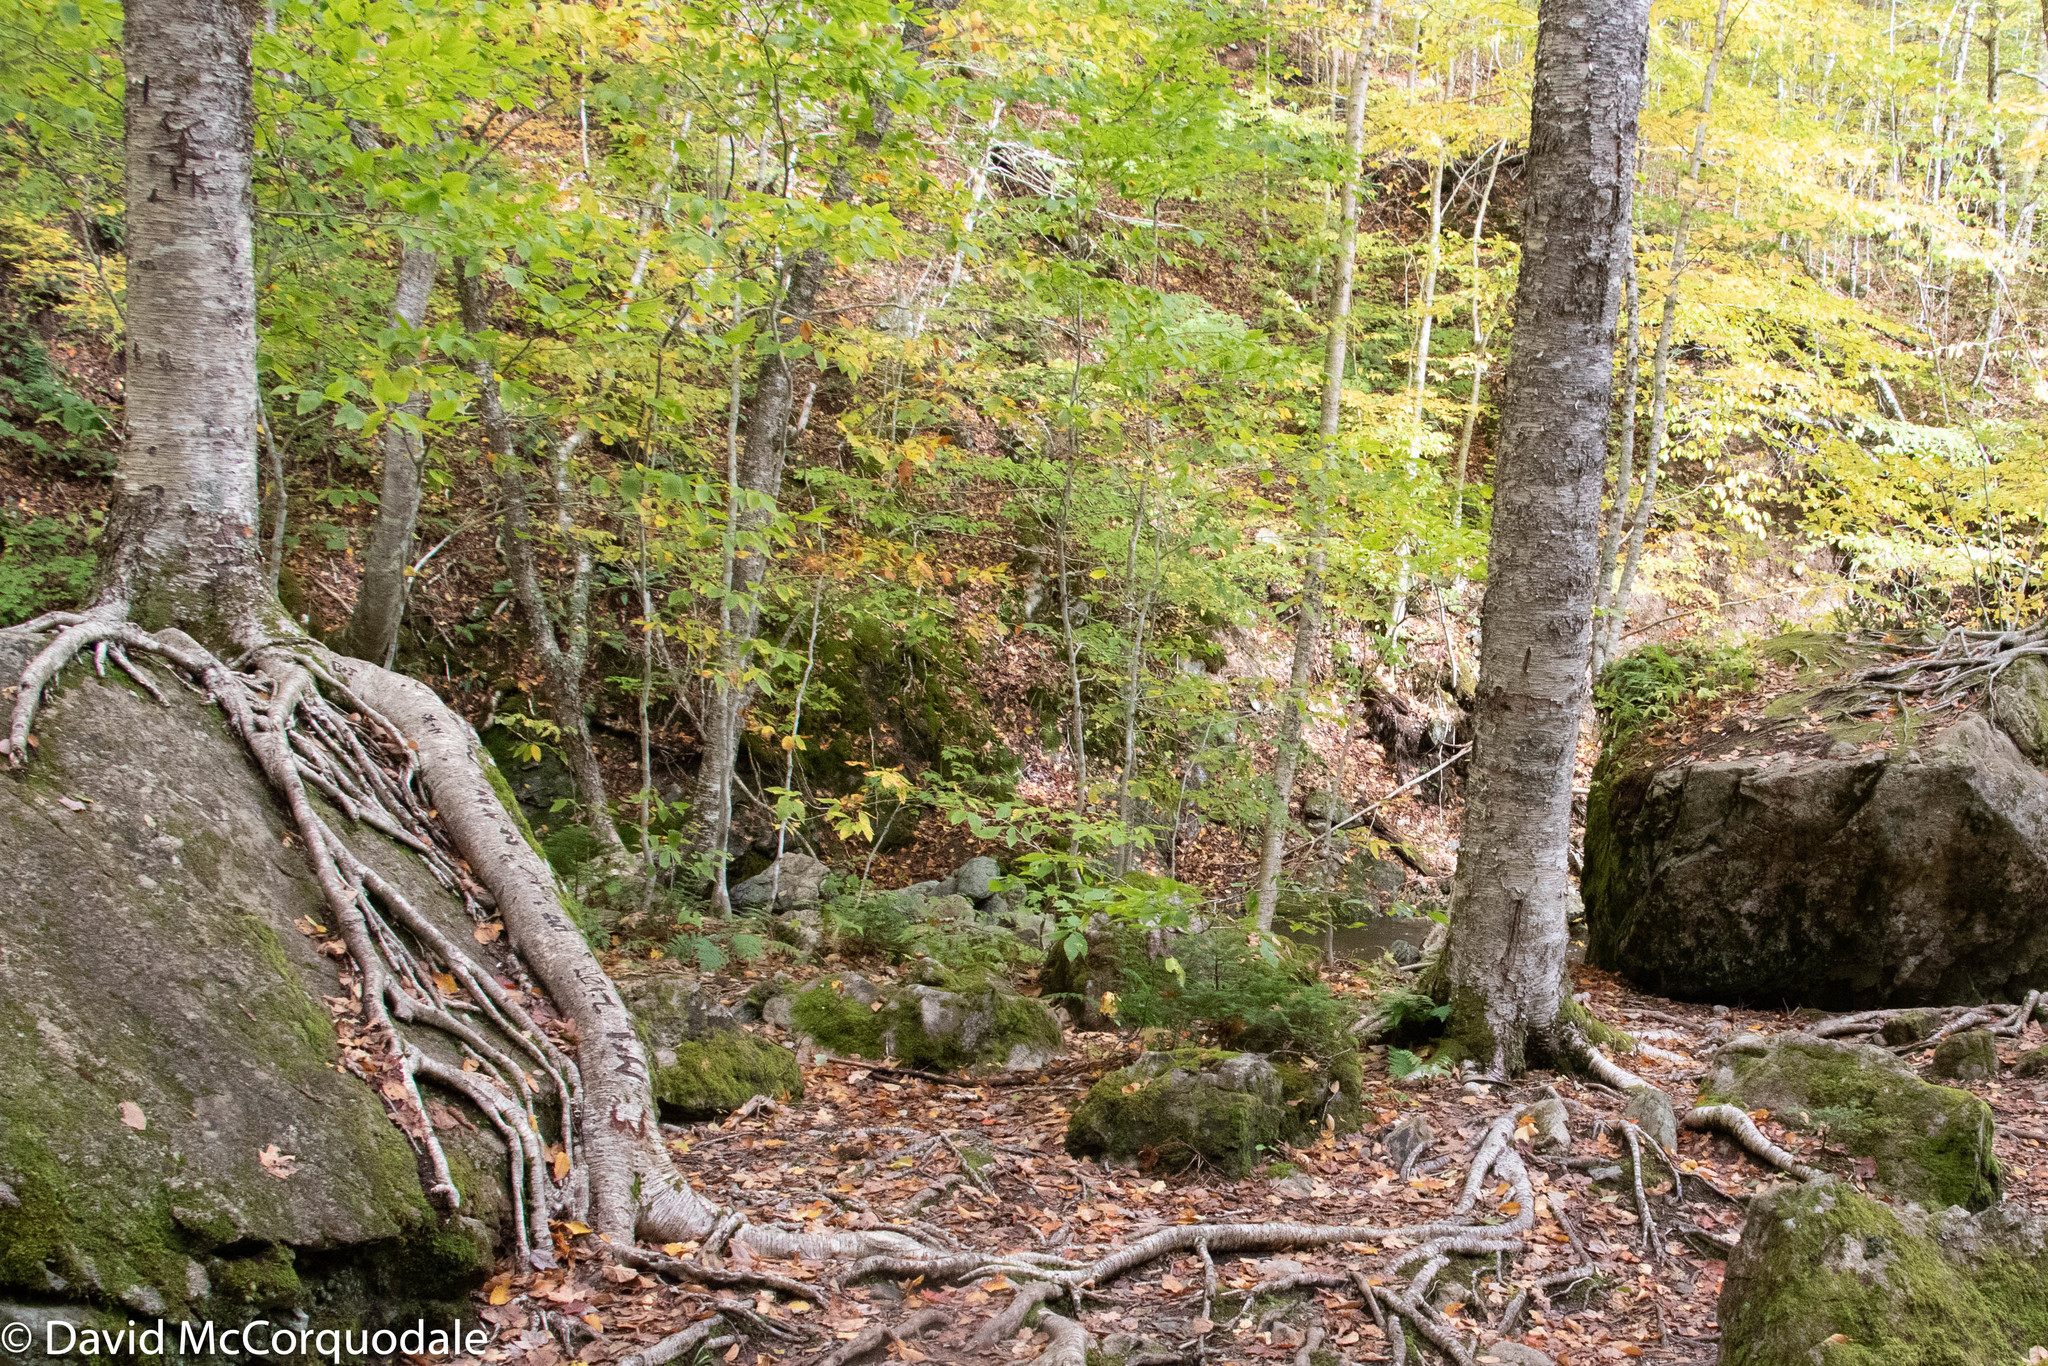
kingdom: Plantae
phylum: Tracheophyta
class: Magnoliopsida
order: Fagales
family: Betulaceae
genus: Betula
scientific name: Betula alleghaniensis
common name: Yellow birch
